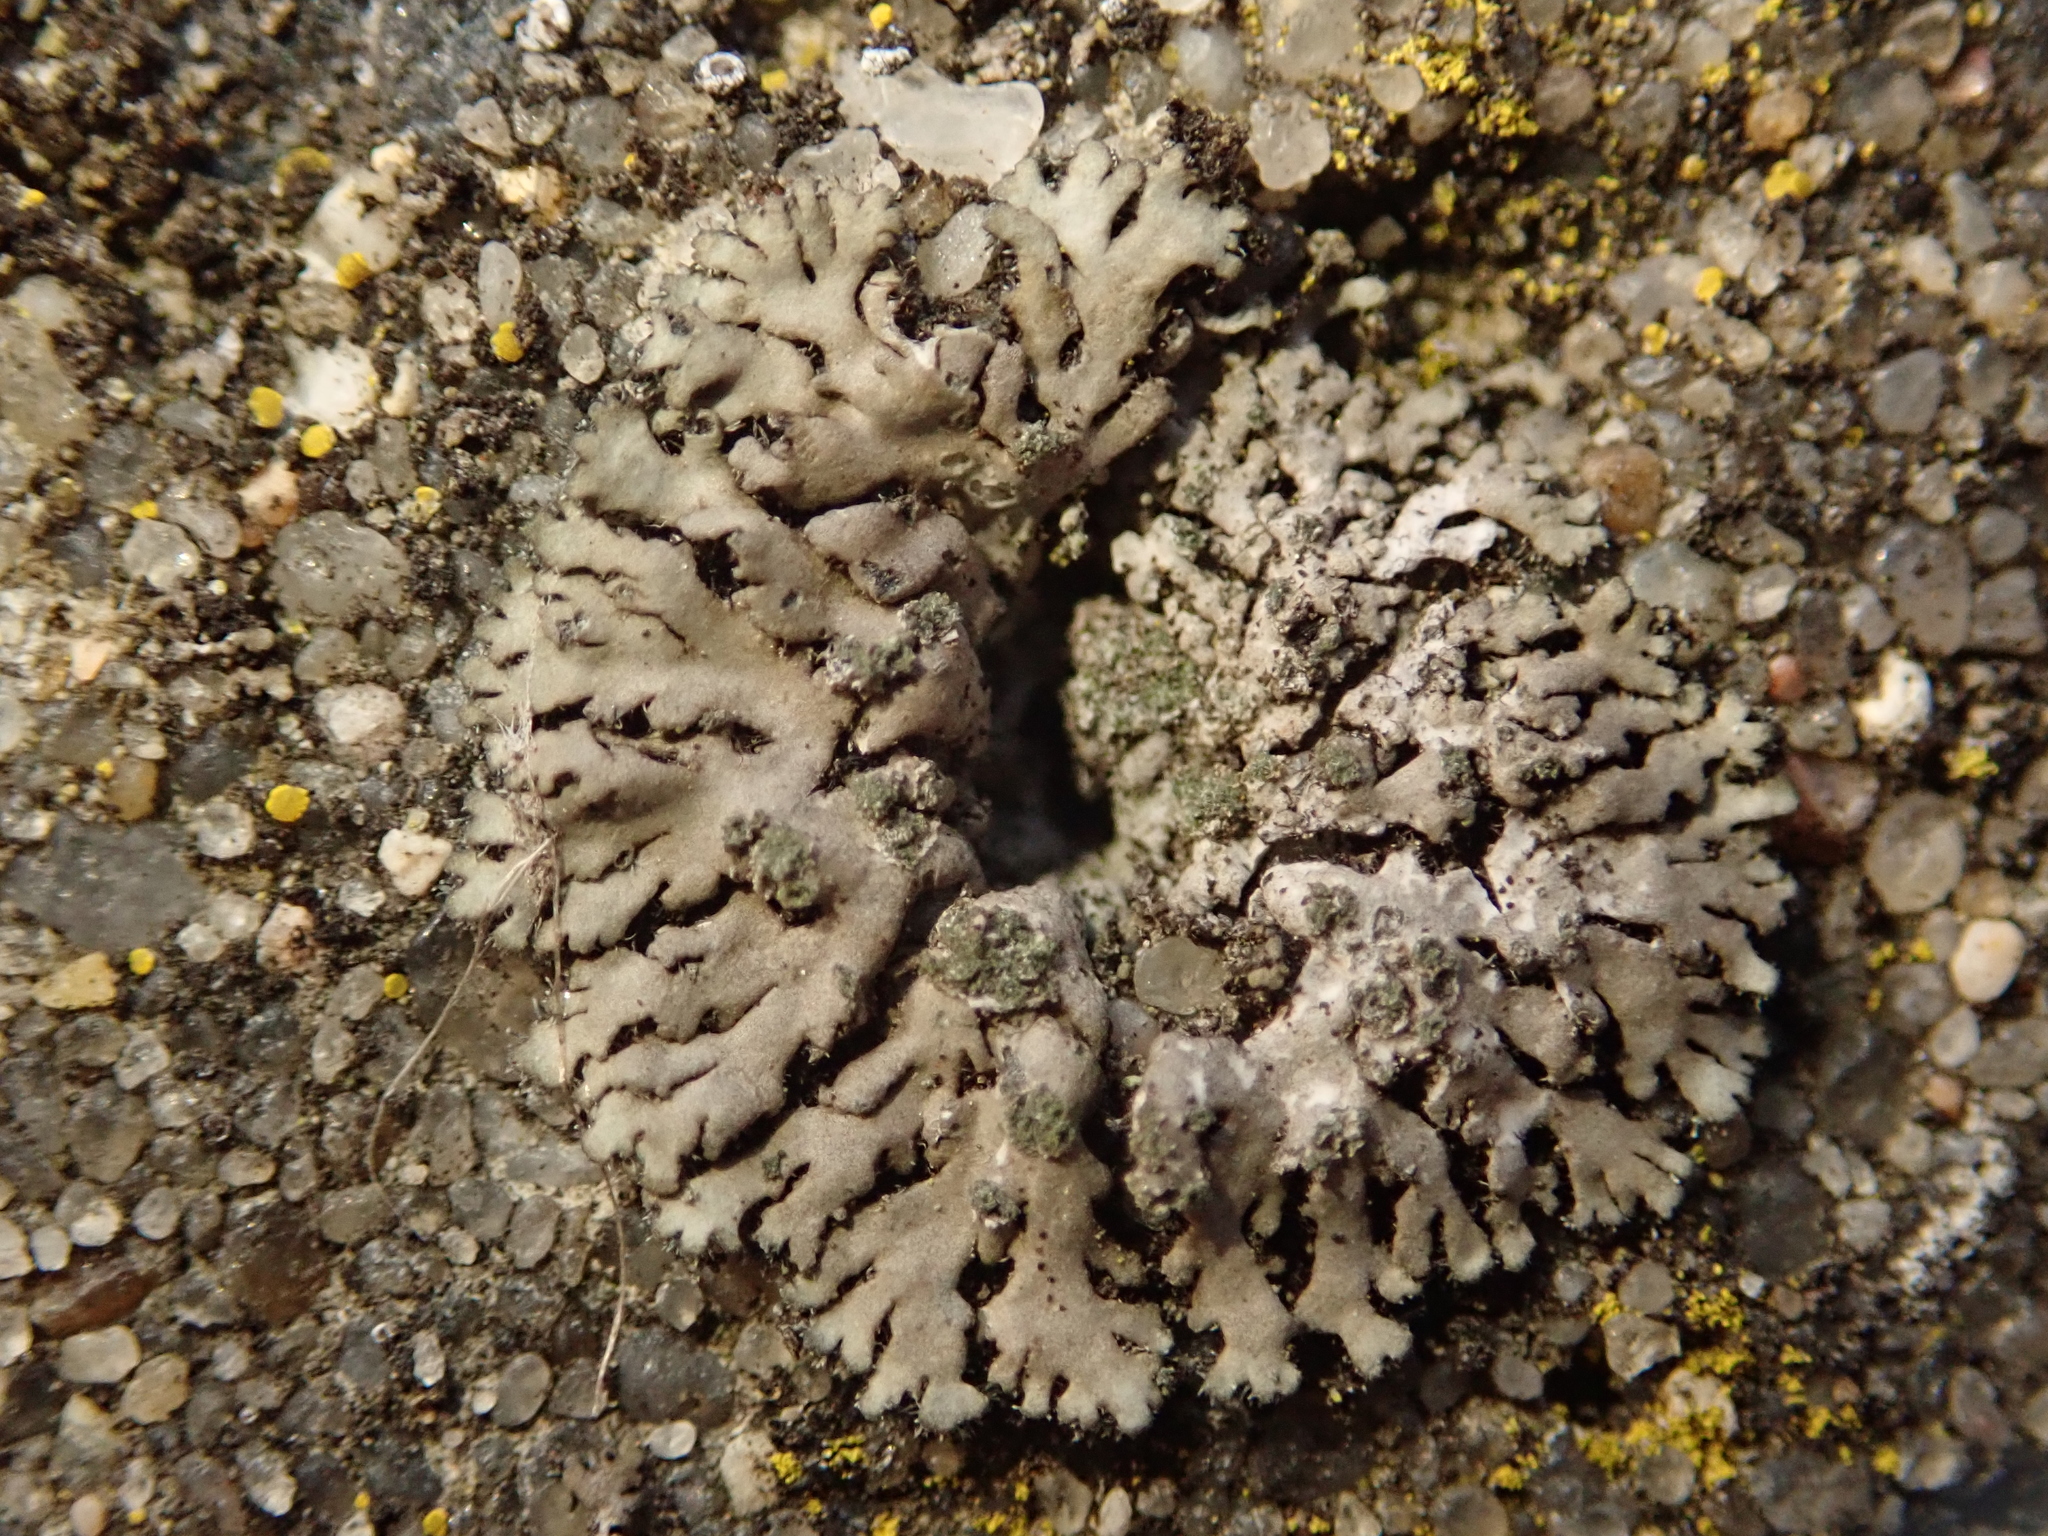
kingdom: Fungi
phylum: Ascomycota
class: Lecanoromycetes
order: Caliciales
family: Physciaceae
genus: Phaeophyscia
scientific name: Phaeophyscia orbicularis
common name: Mealy shadow lichen
